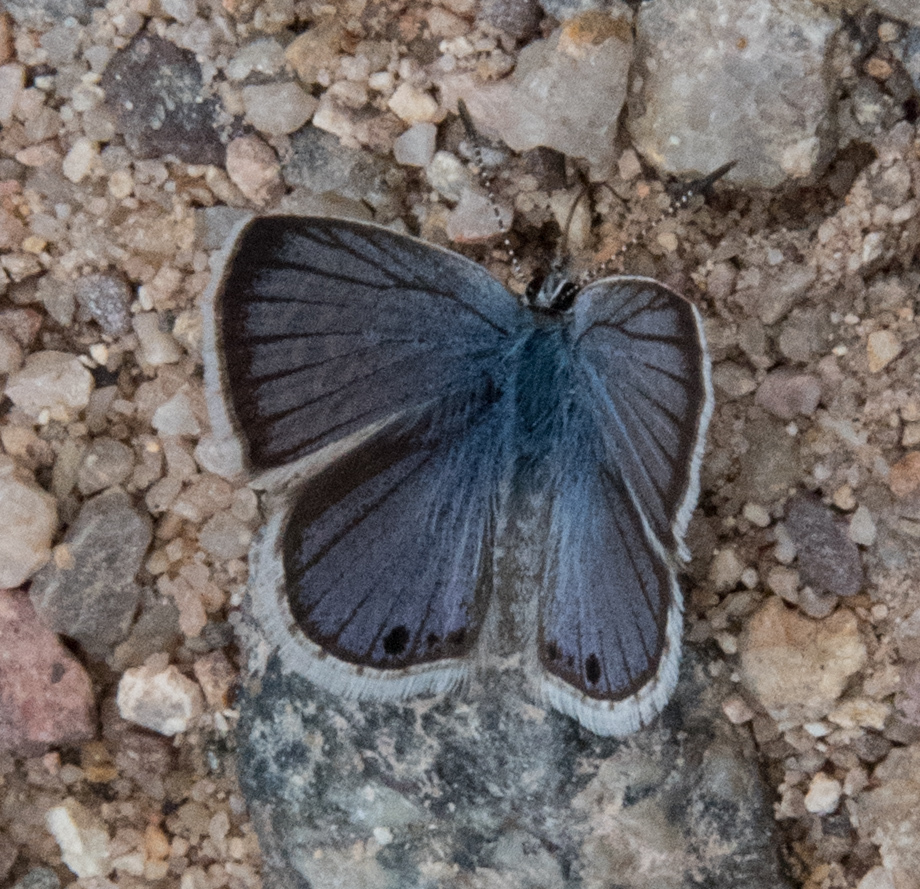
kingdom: Animalia
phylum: Arthropoda
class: Insecta
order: Lepidoptera
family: Lycaenidae
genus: Echinargus
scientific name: Echinargus isola
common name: Reakirt's blue
